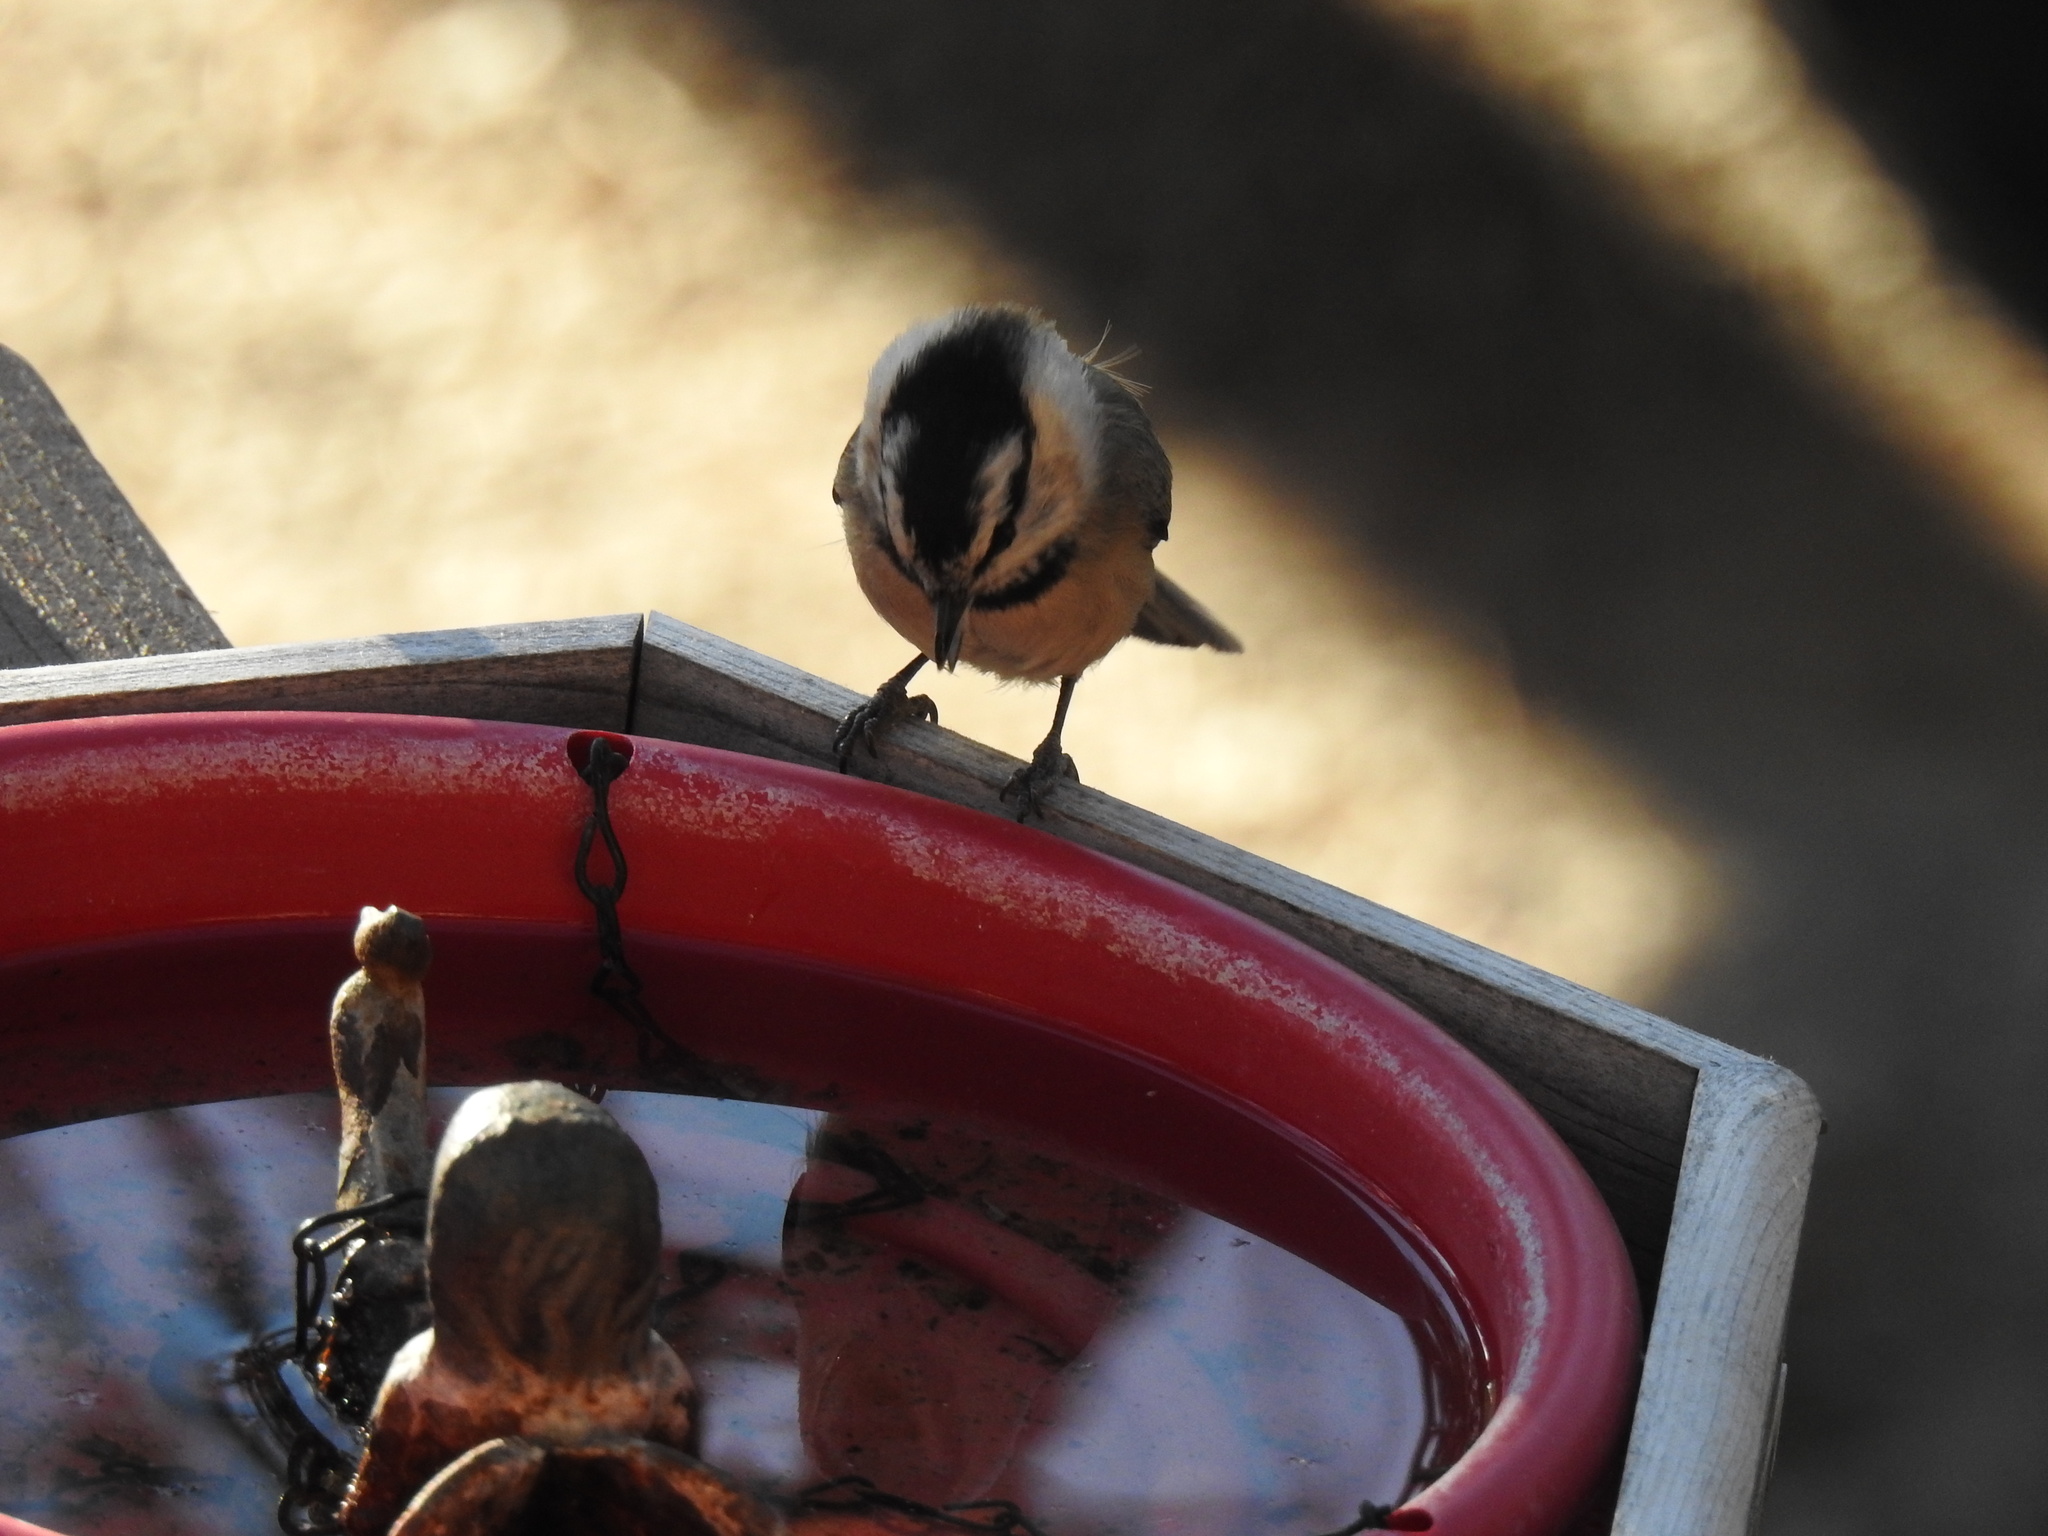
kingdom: Animalia
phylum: Chordata
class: Aves
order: Passeriformes
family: Paridae
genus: Poecile
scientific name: Poecile gambeli
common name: Mountain chickadee
